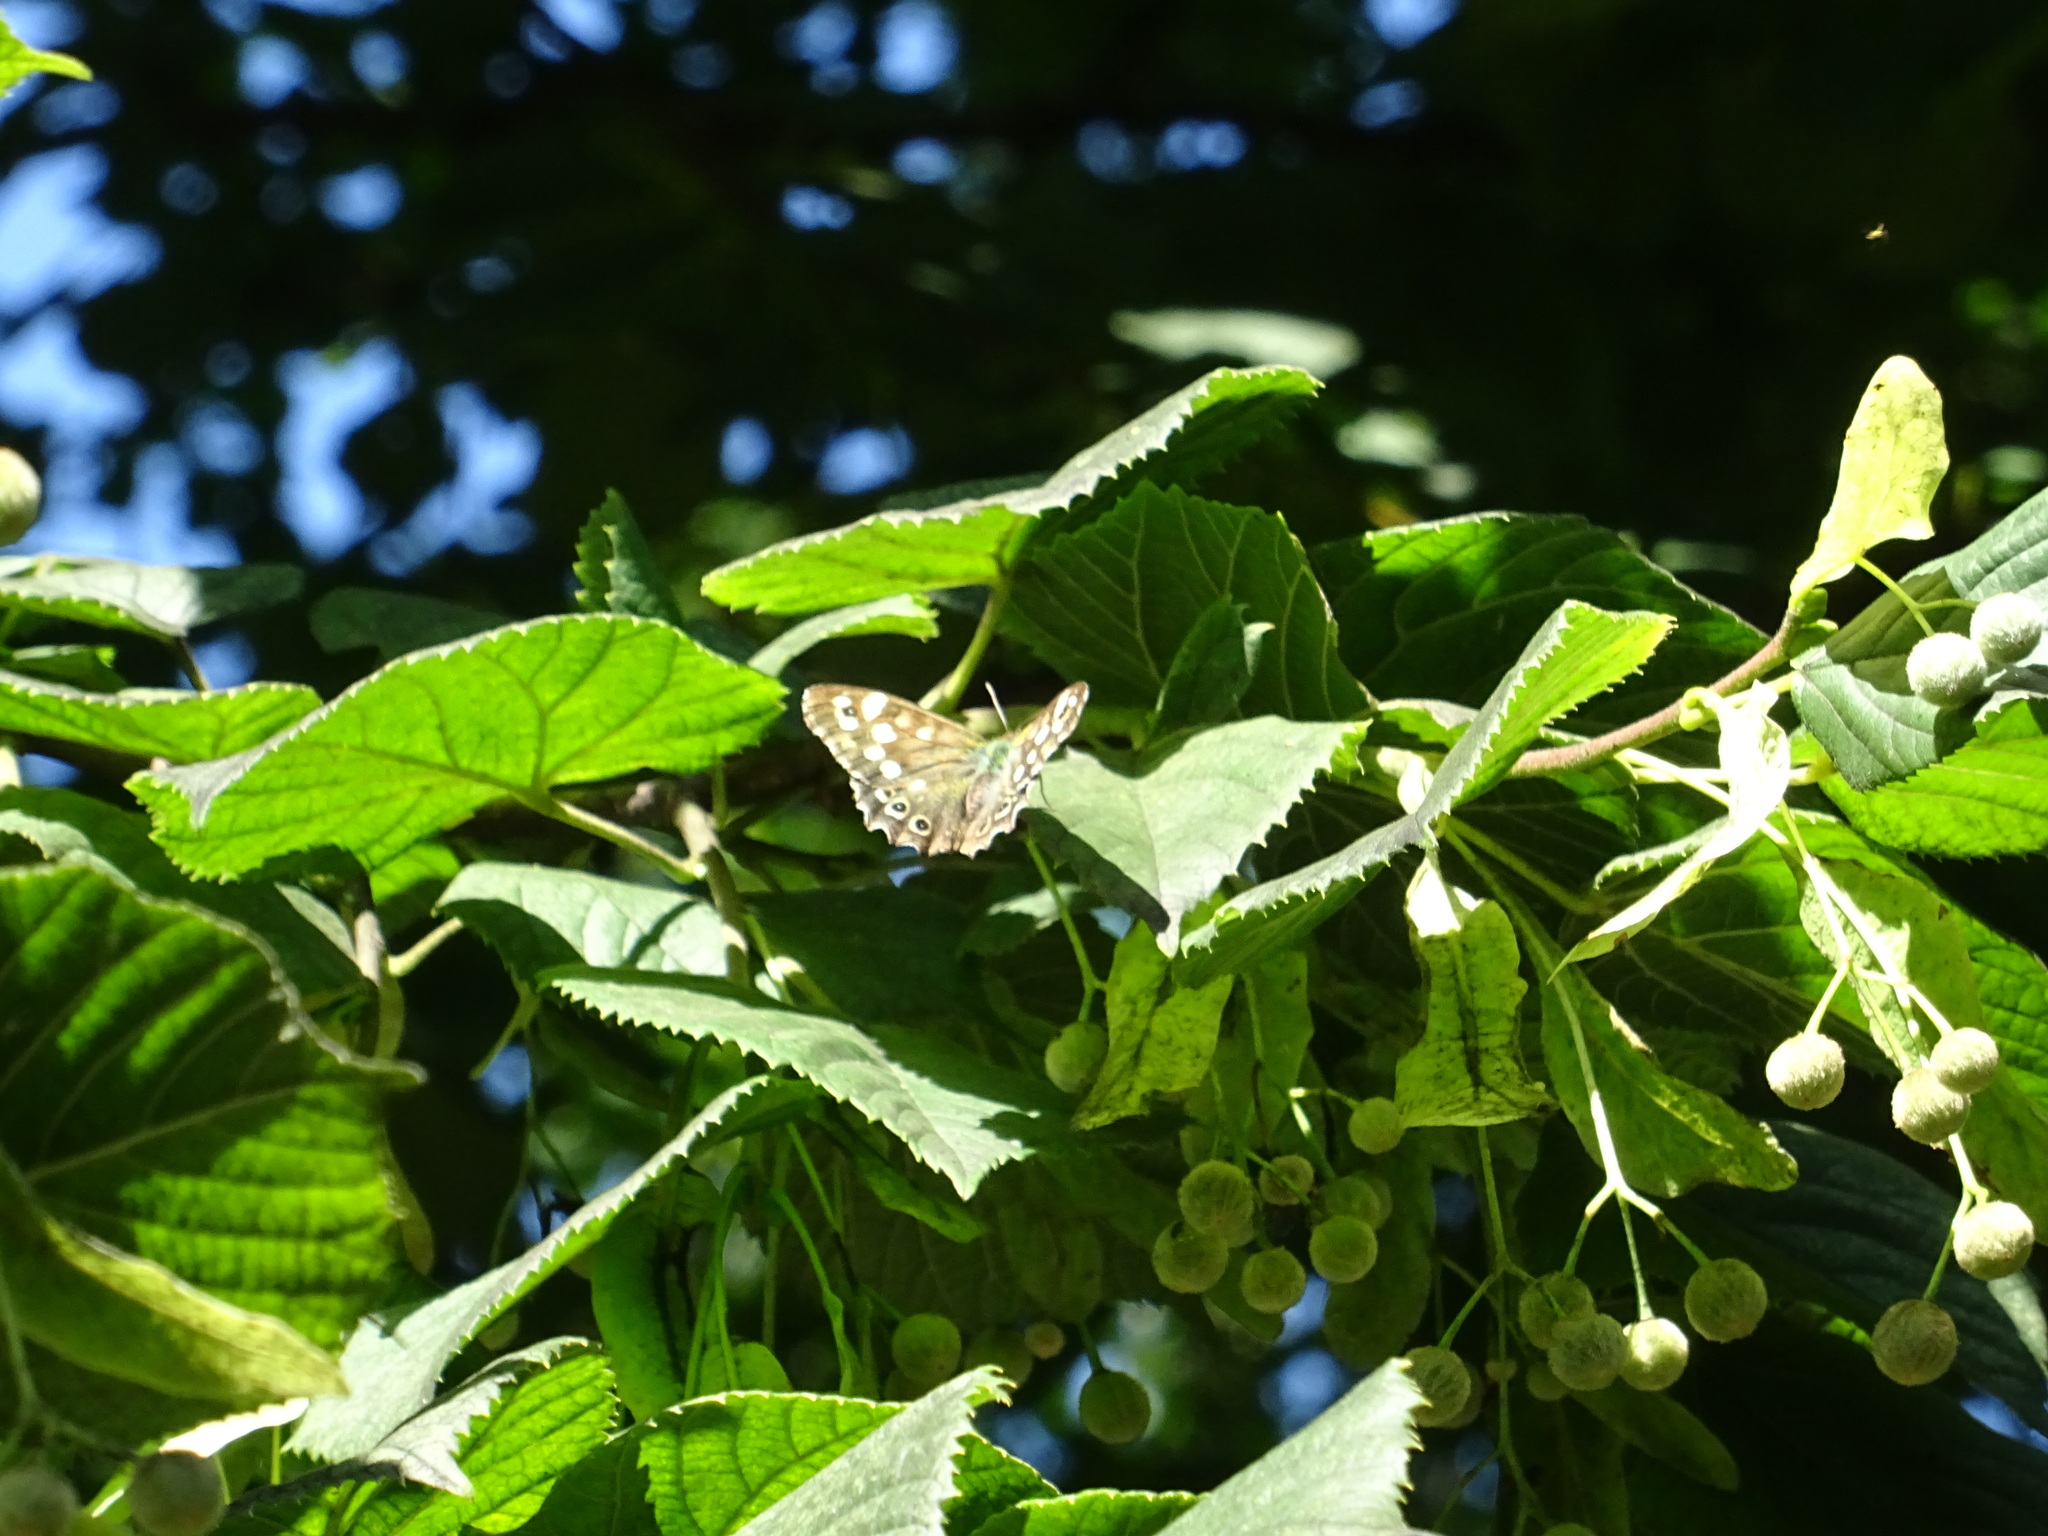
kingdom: Animalia
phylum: Arthropoda
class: Insecta
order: Lepidoptera
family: Nymphalidae
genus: Pararge
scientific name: Pararge aegeria
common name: Speckled wood
